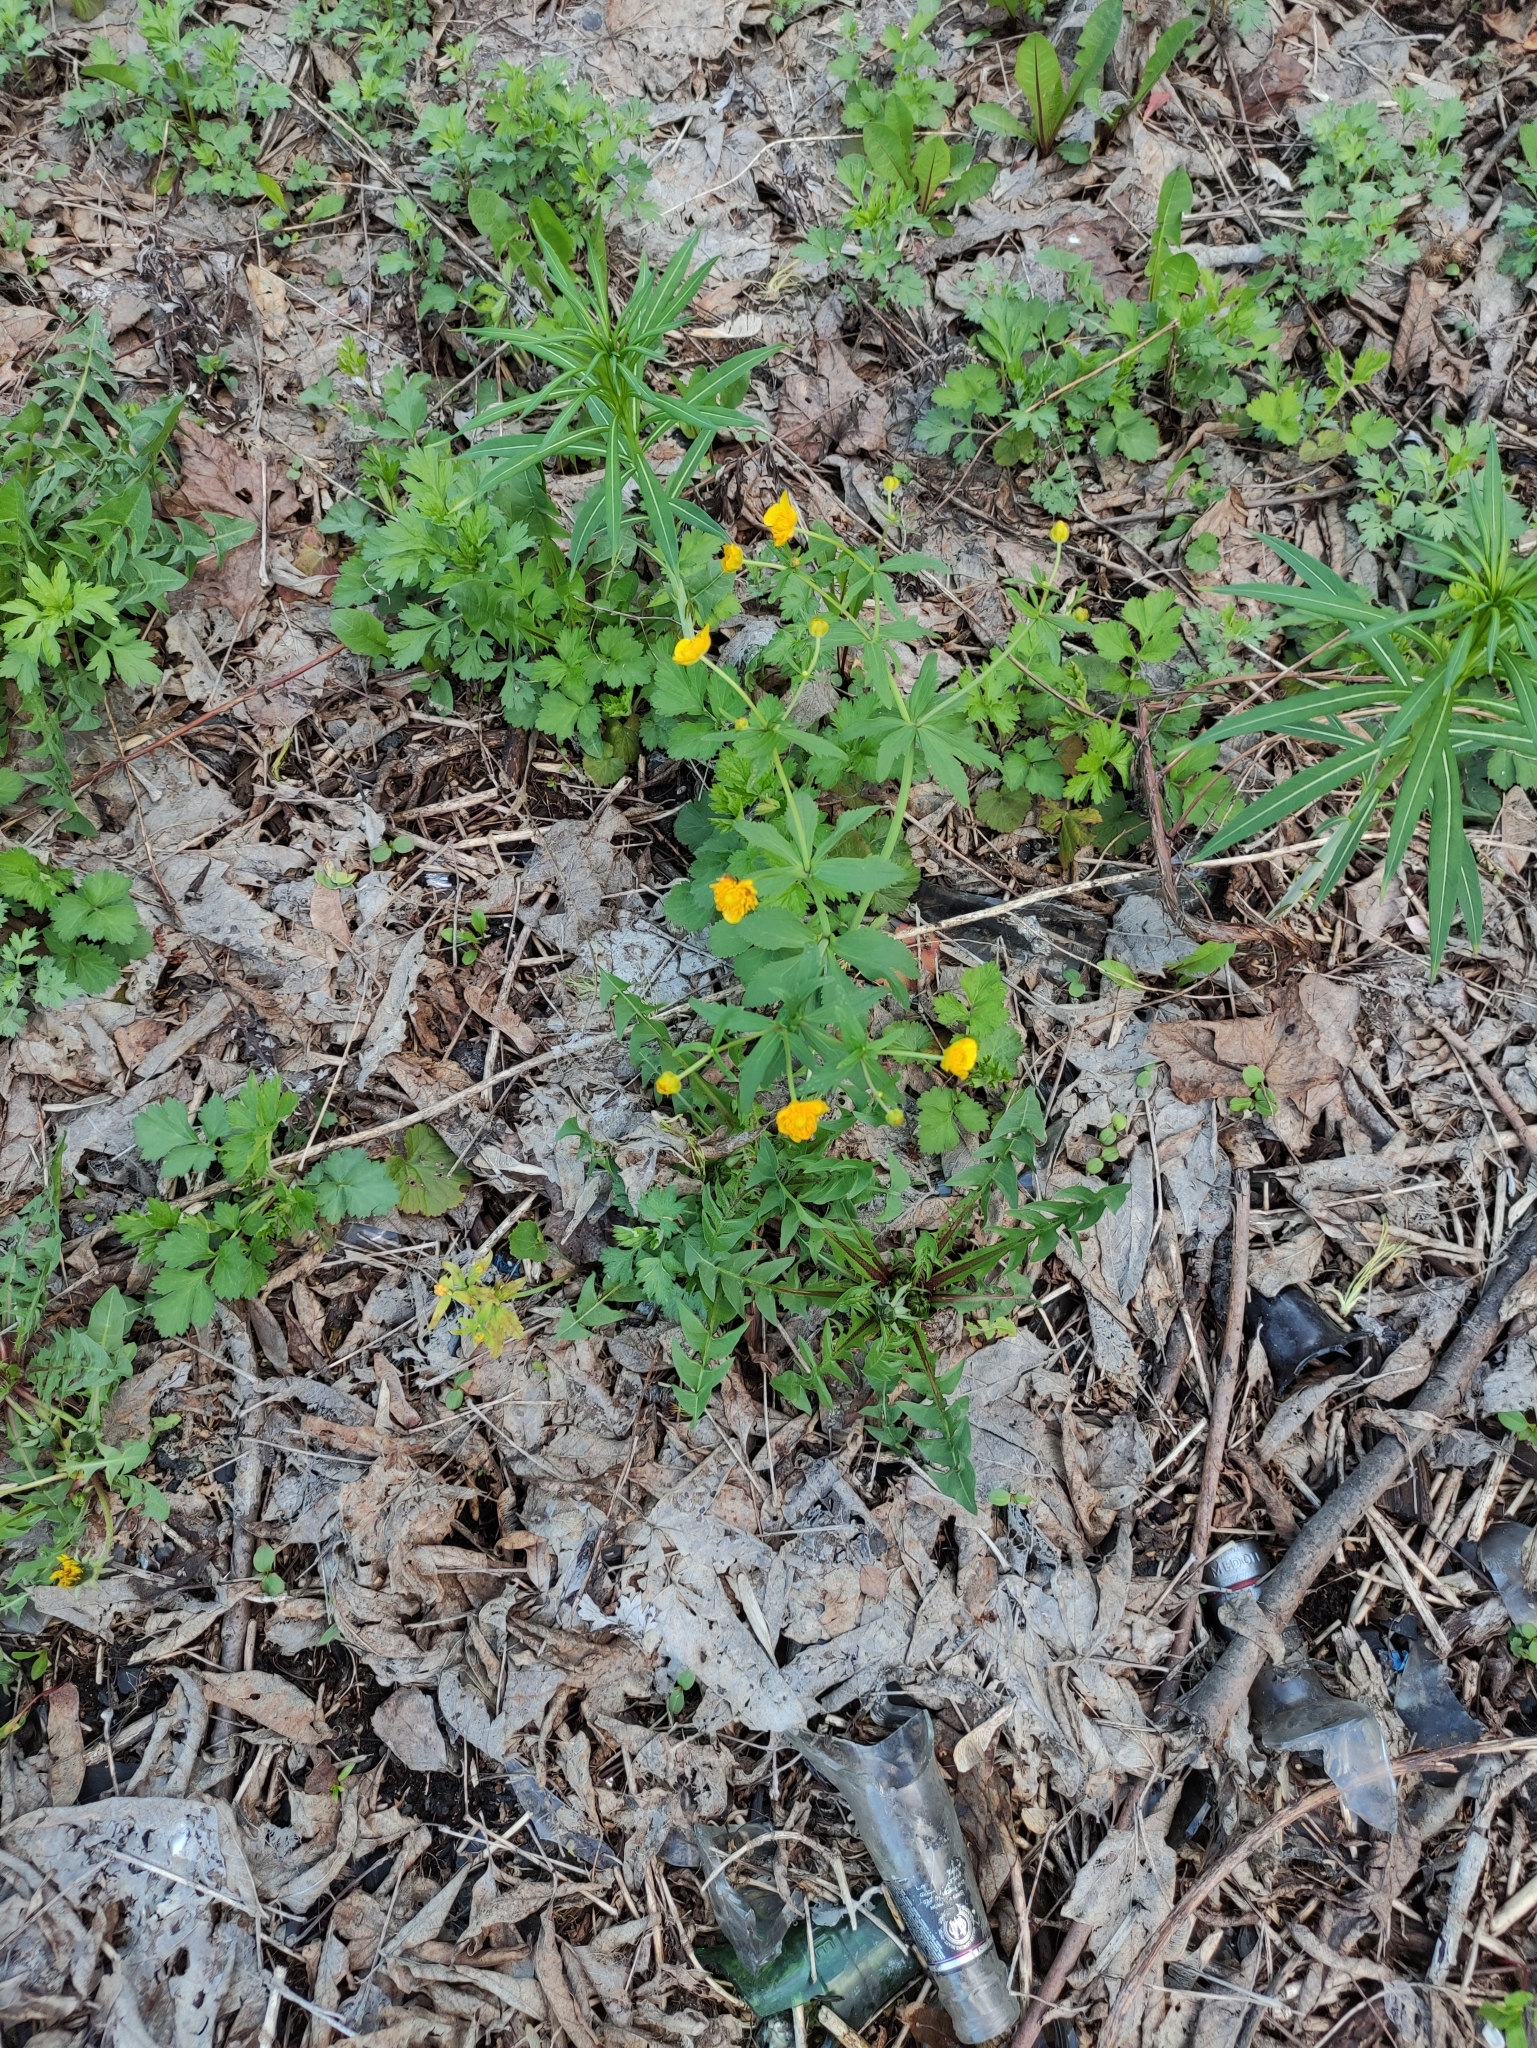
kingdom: Plantae
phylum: Tracheophyta
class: Magnoliopsida
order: Ranunculales
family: Ranunculaceae
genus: Ranunculus
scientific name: Ranunculus cassubicus
